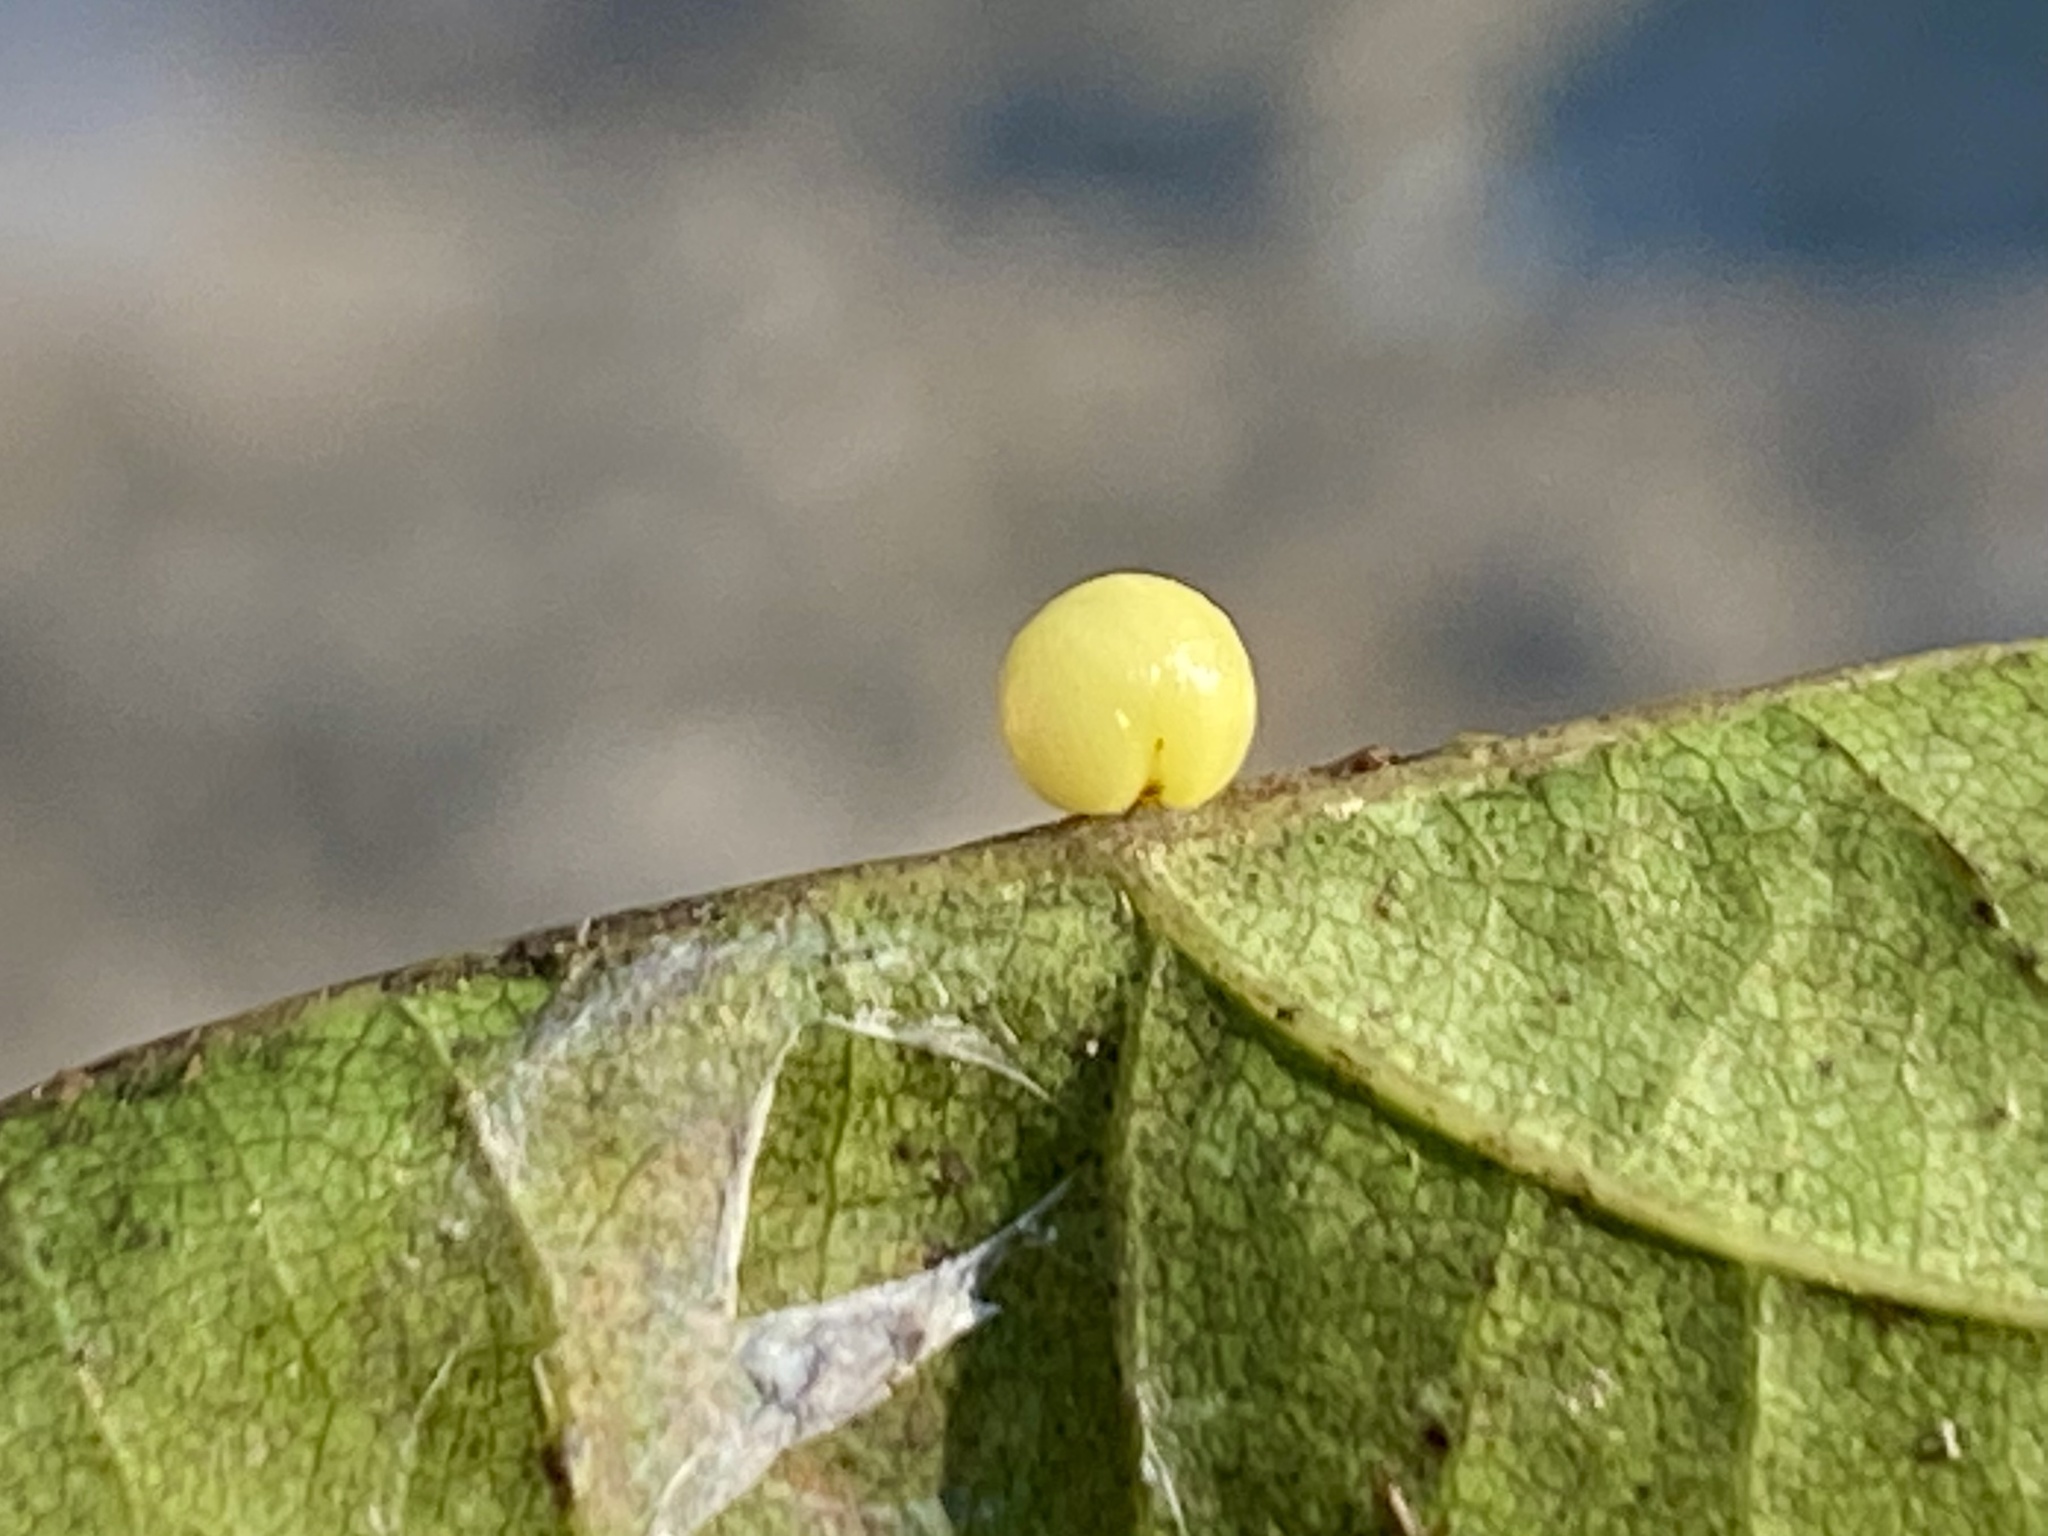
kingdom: Animalia
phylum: Arthropoda
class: Insecta
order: Hymenoptera
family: Cynipidae
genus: Zopheroteras
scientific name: Zopheroteras
